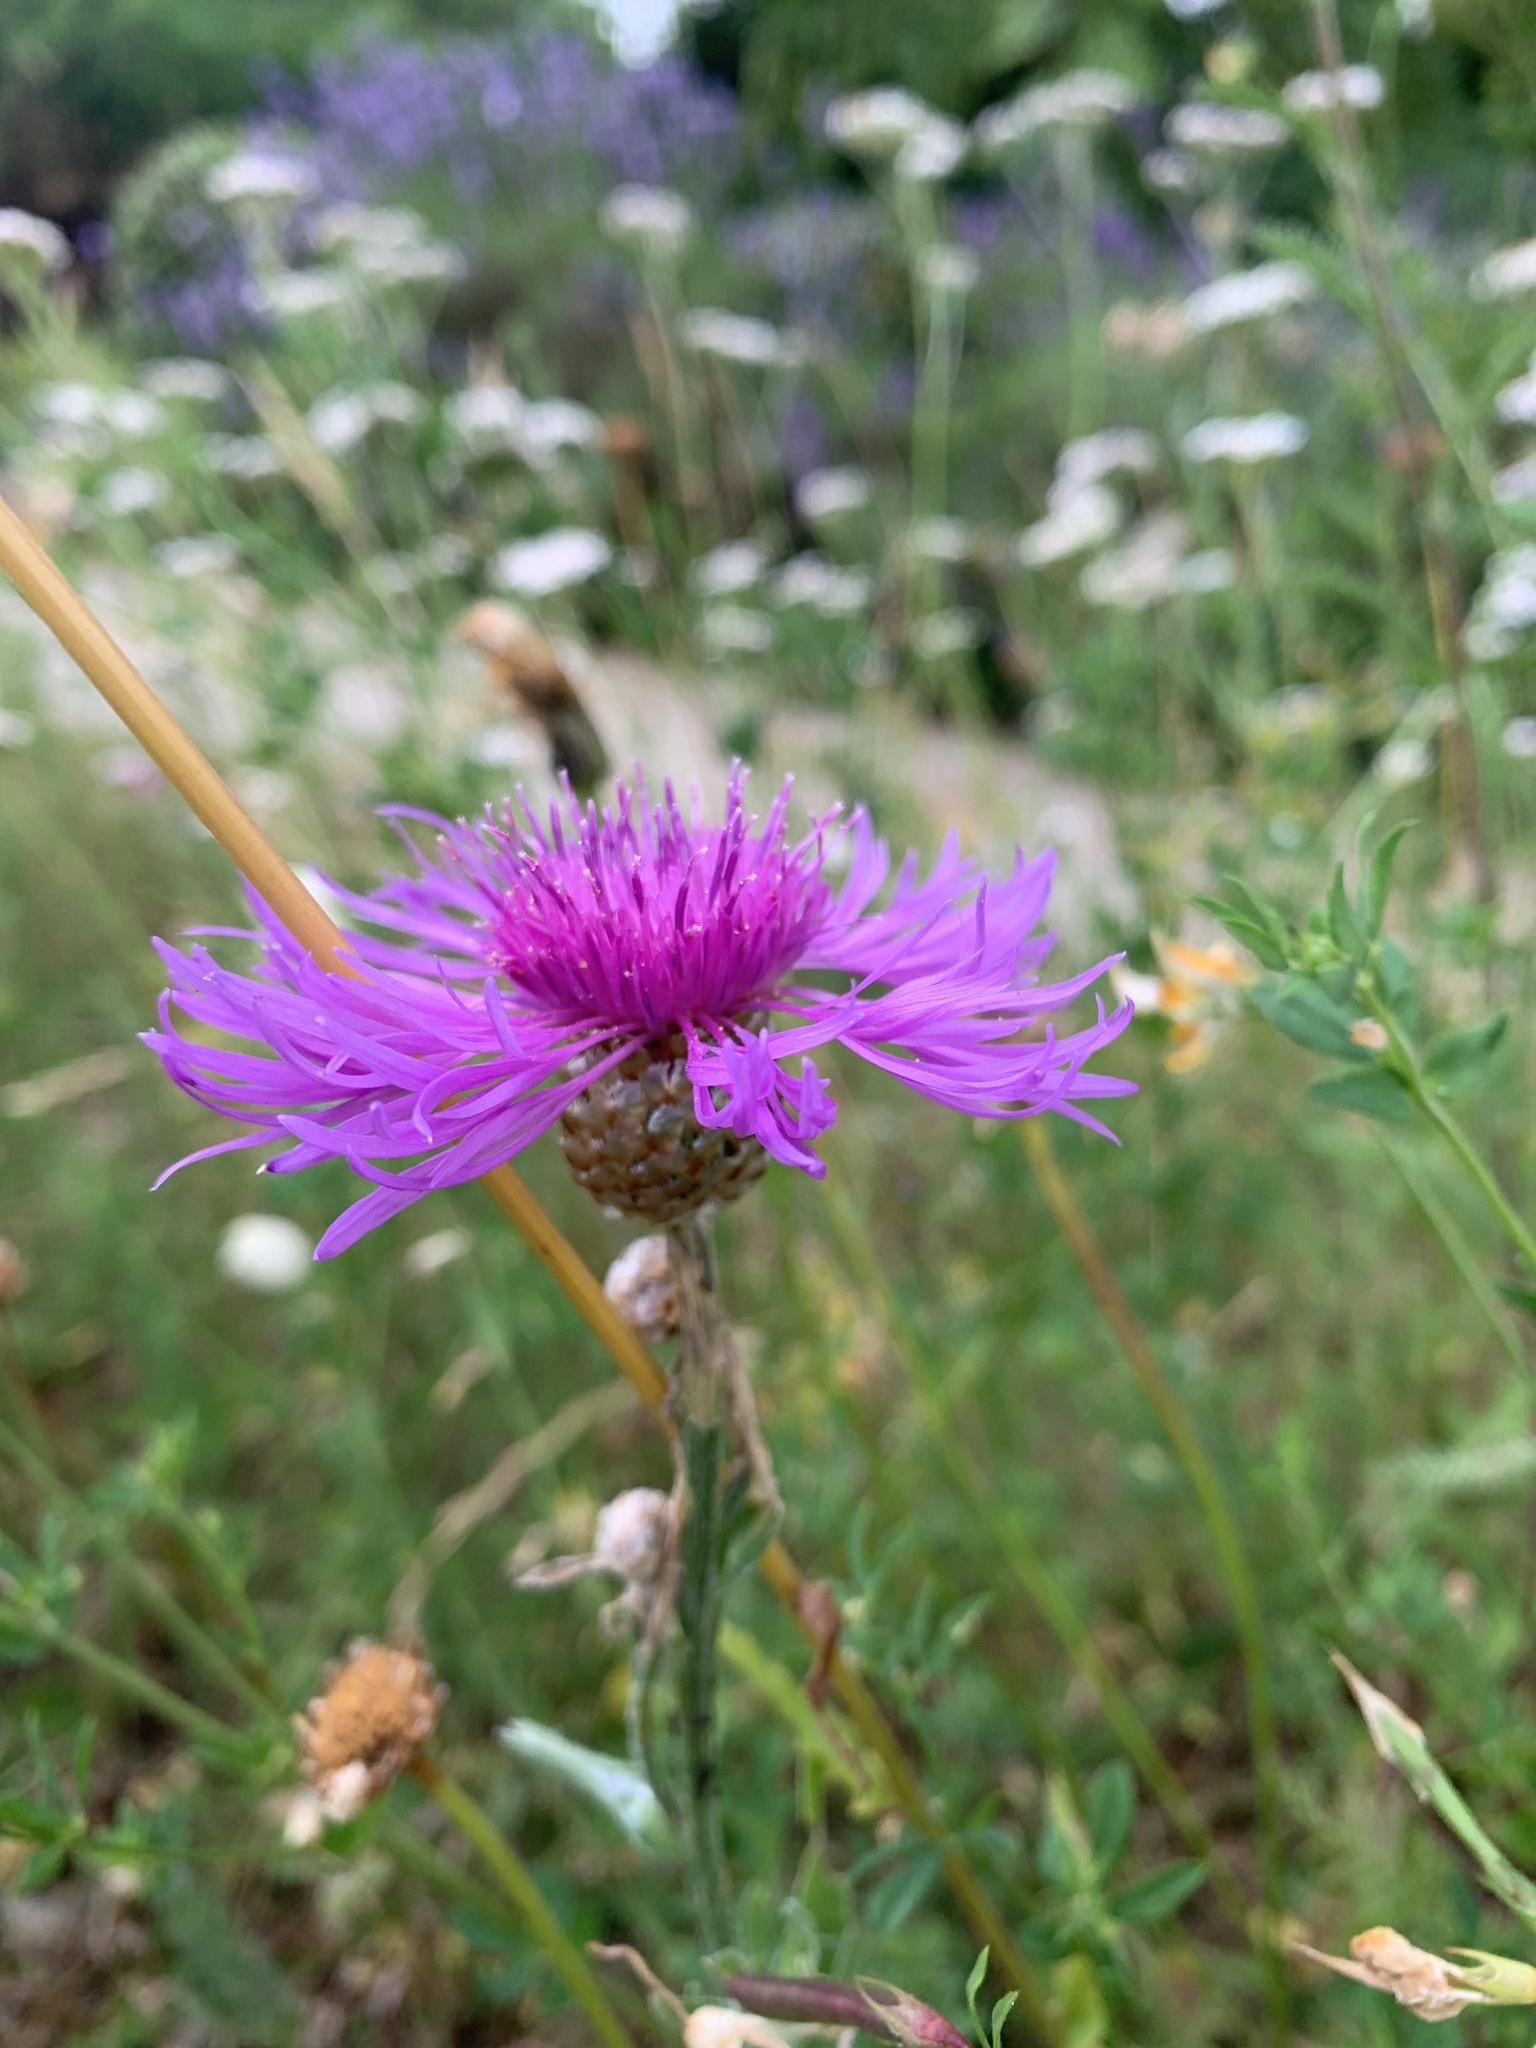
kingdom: Plantae
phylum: Tracheophyta
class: Magnoliopsida
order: Asterales
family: Asteraceae
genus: Centaurea
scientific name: Centaurea jacea
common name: Brown knapweed
